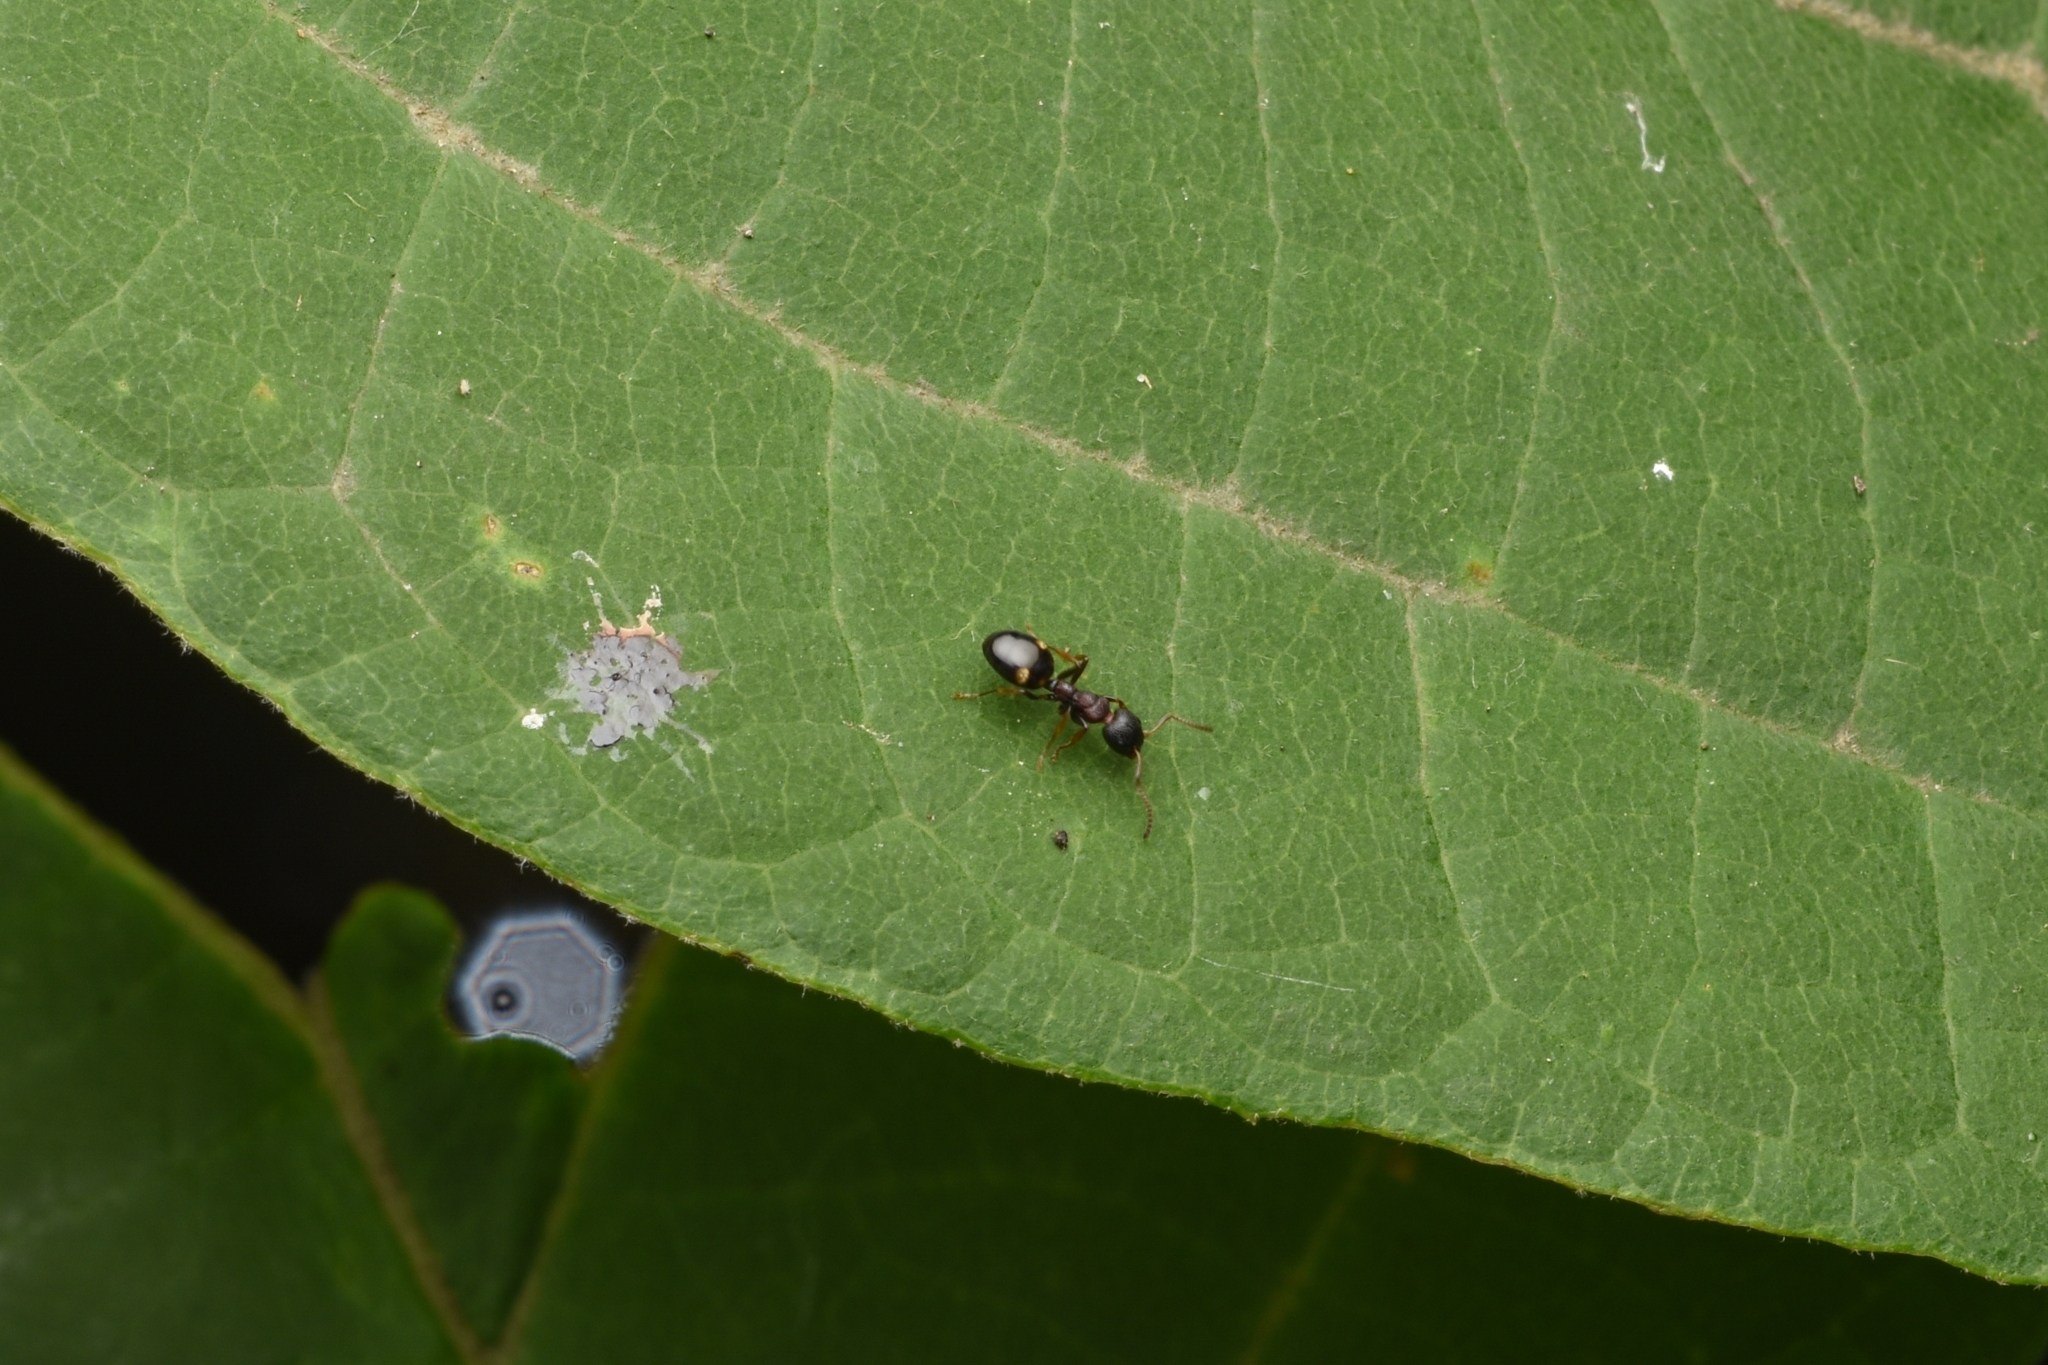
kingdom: Animalia
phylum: Arthropoda
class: Insecta
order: Hymenoptera
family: Formicidae
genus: Dolichoderus
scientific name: Dolichoderus sibiricus
